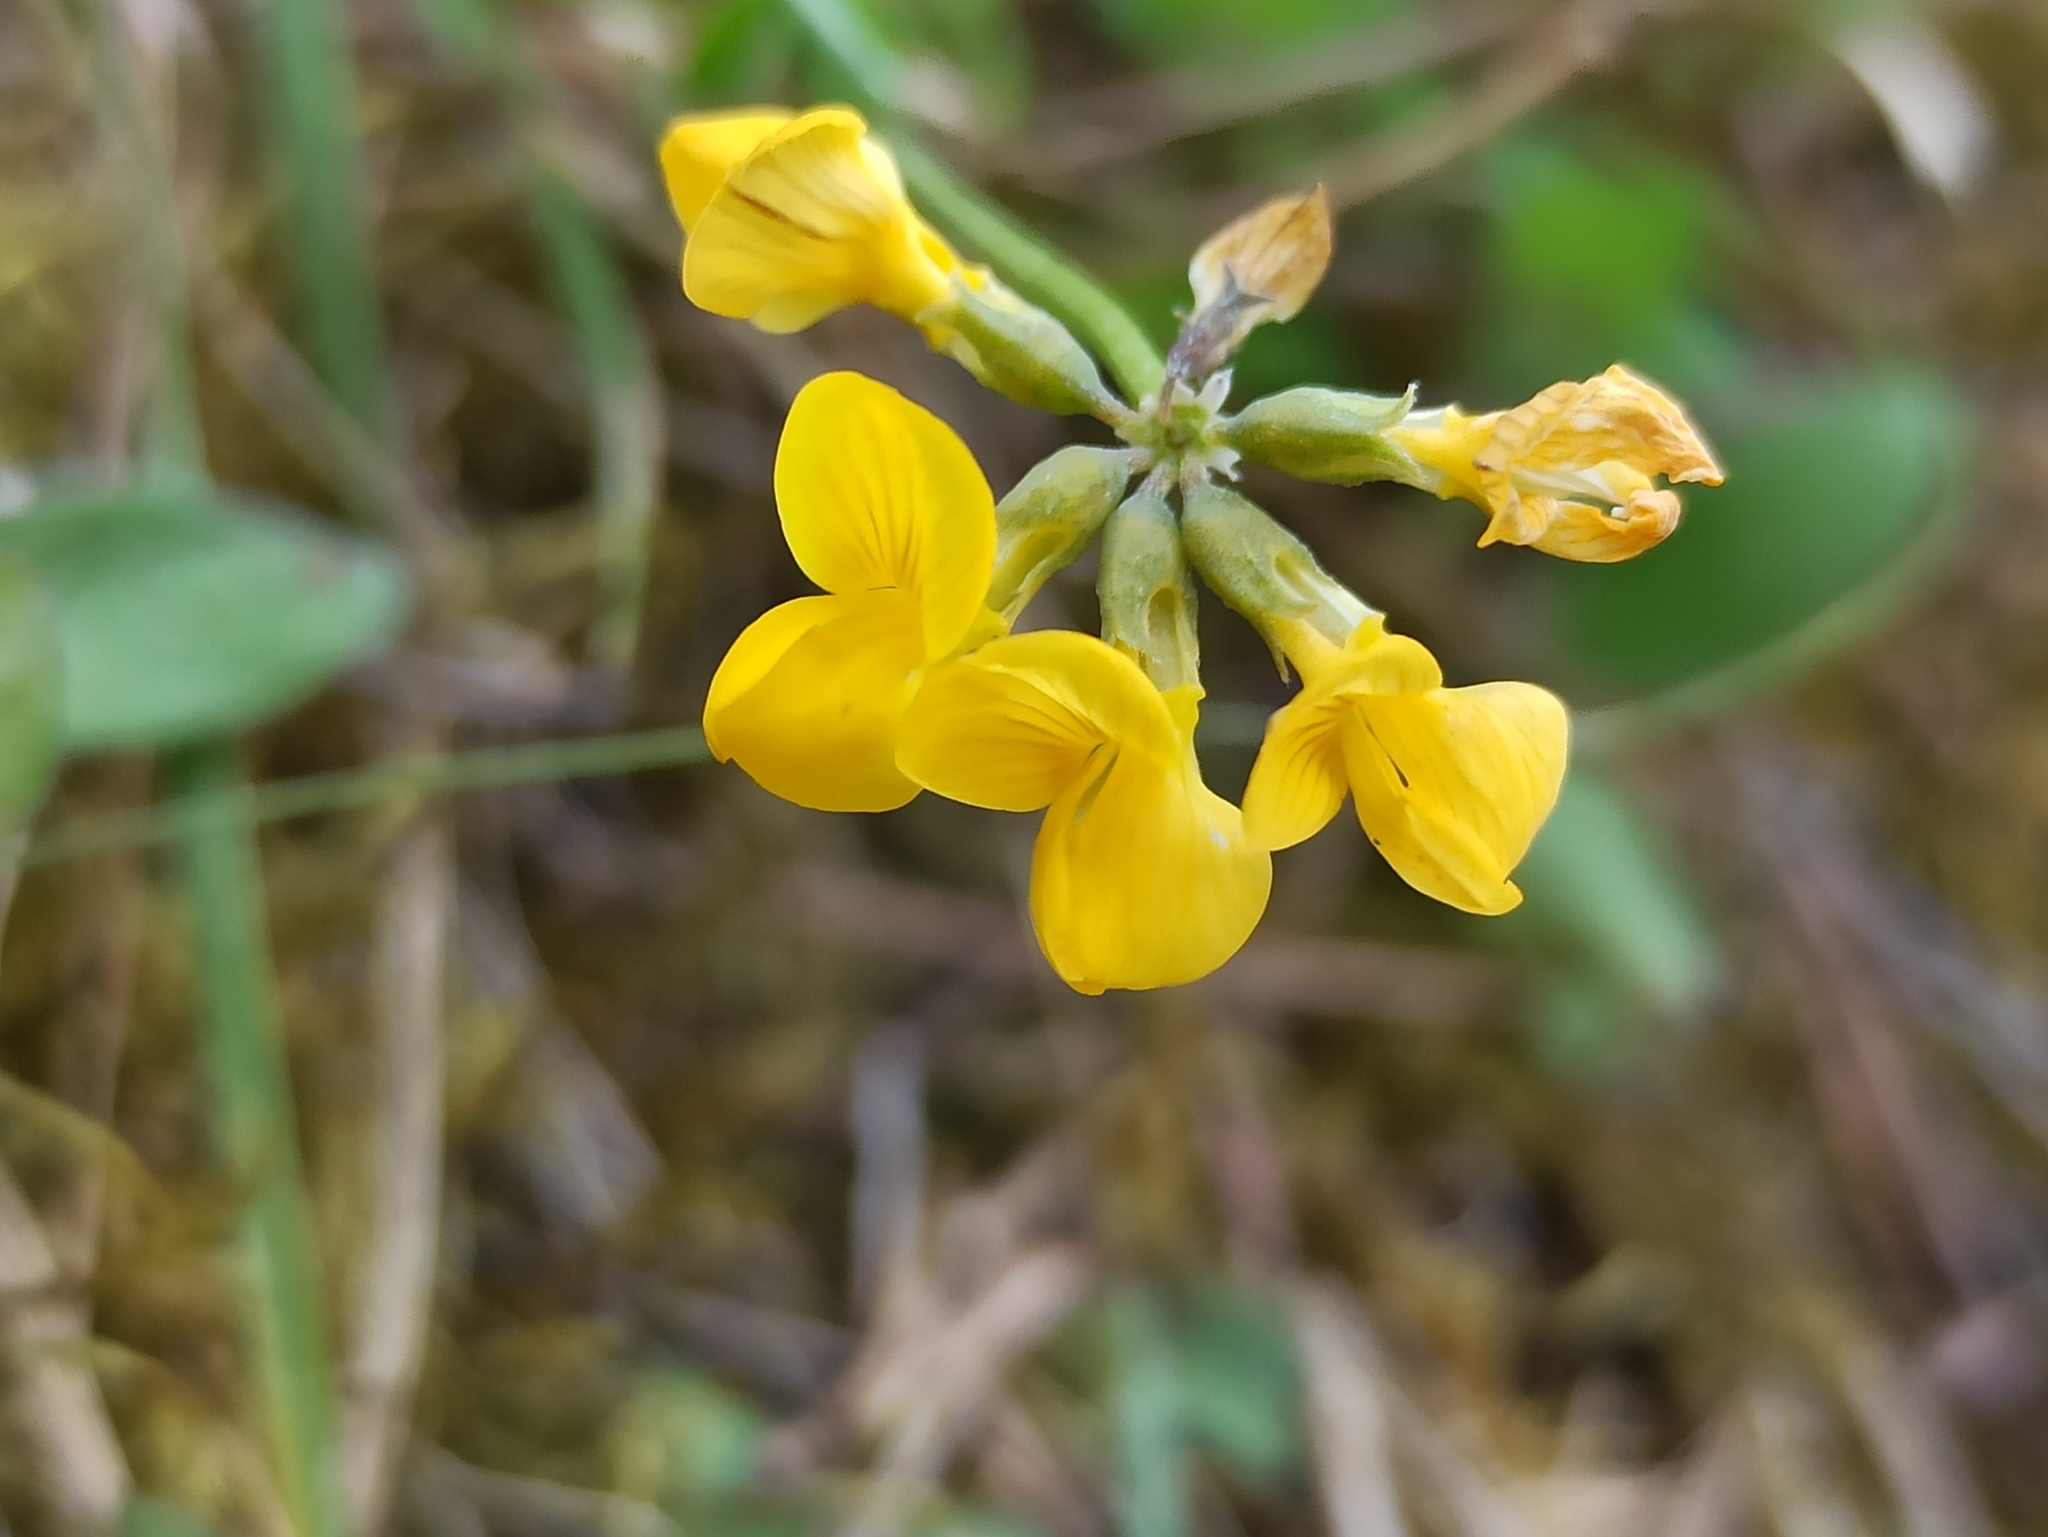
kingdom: Plantae
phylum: Tracheophyta
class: Magnoliopsida
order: Fabales
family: Fabaceae
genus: Hippocrepis
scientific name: Hippocrepis comosa
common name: Horseshoe vetch
